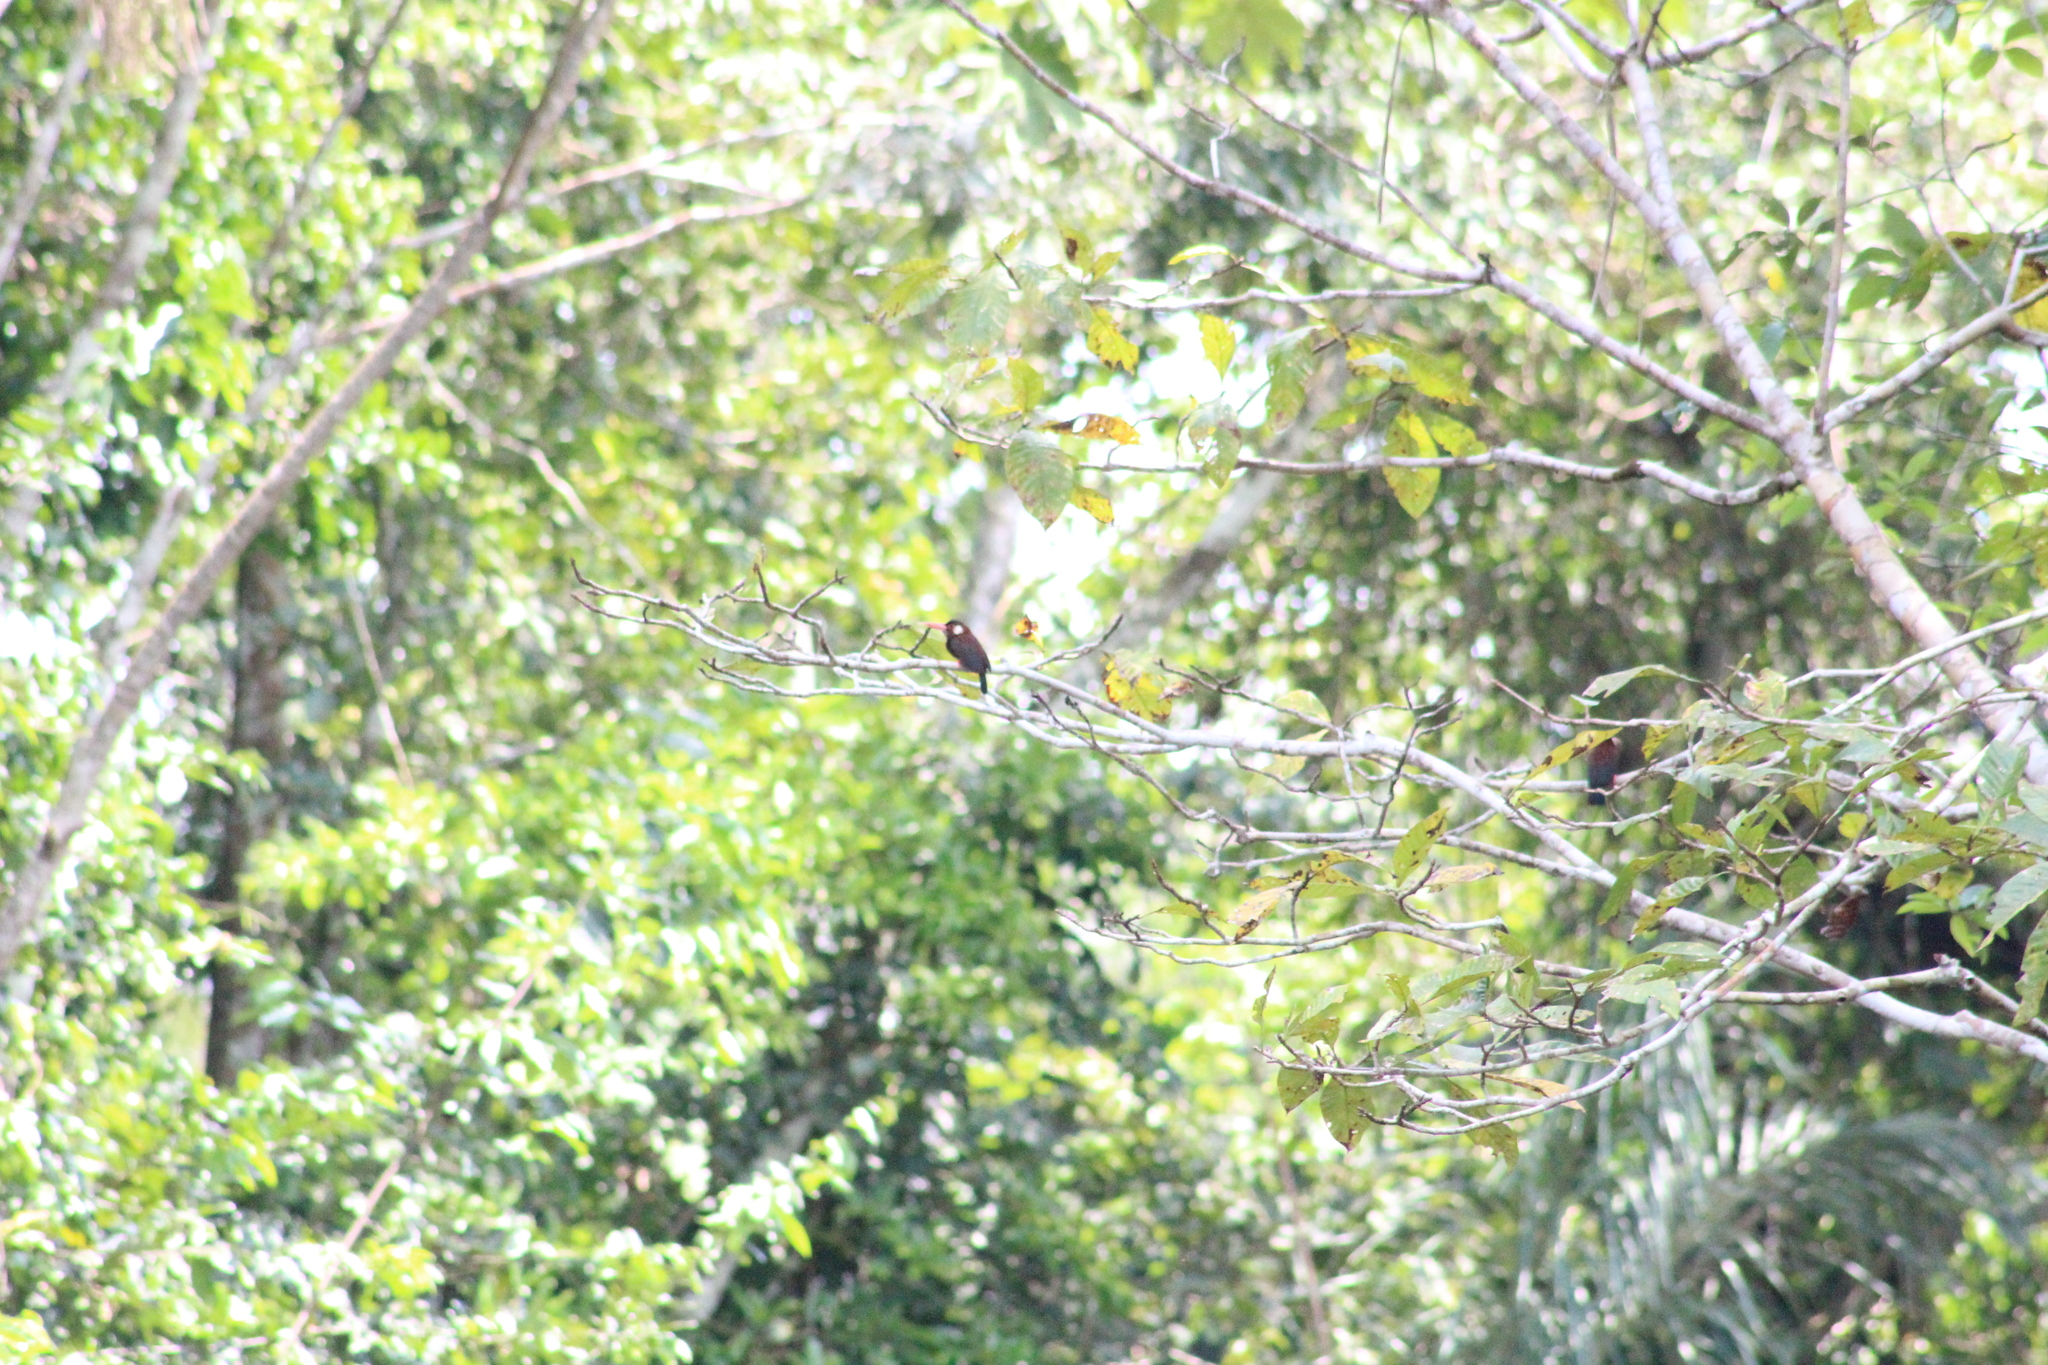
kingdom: Animalia
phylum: Chordata
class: Aves
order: Piciformes
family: Galbulidae
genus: Galbalcyrhynchus
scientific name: Galbalcyrhynchus leucotis
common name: White-eared jacamar
